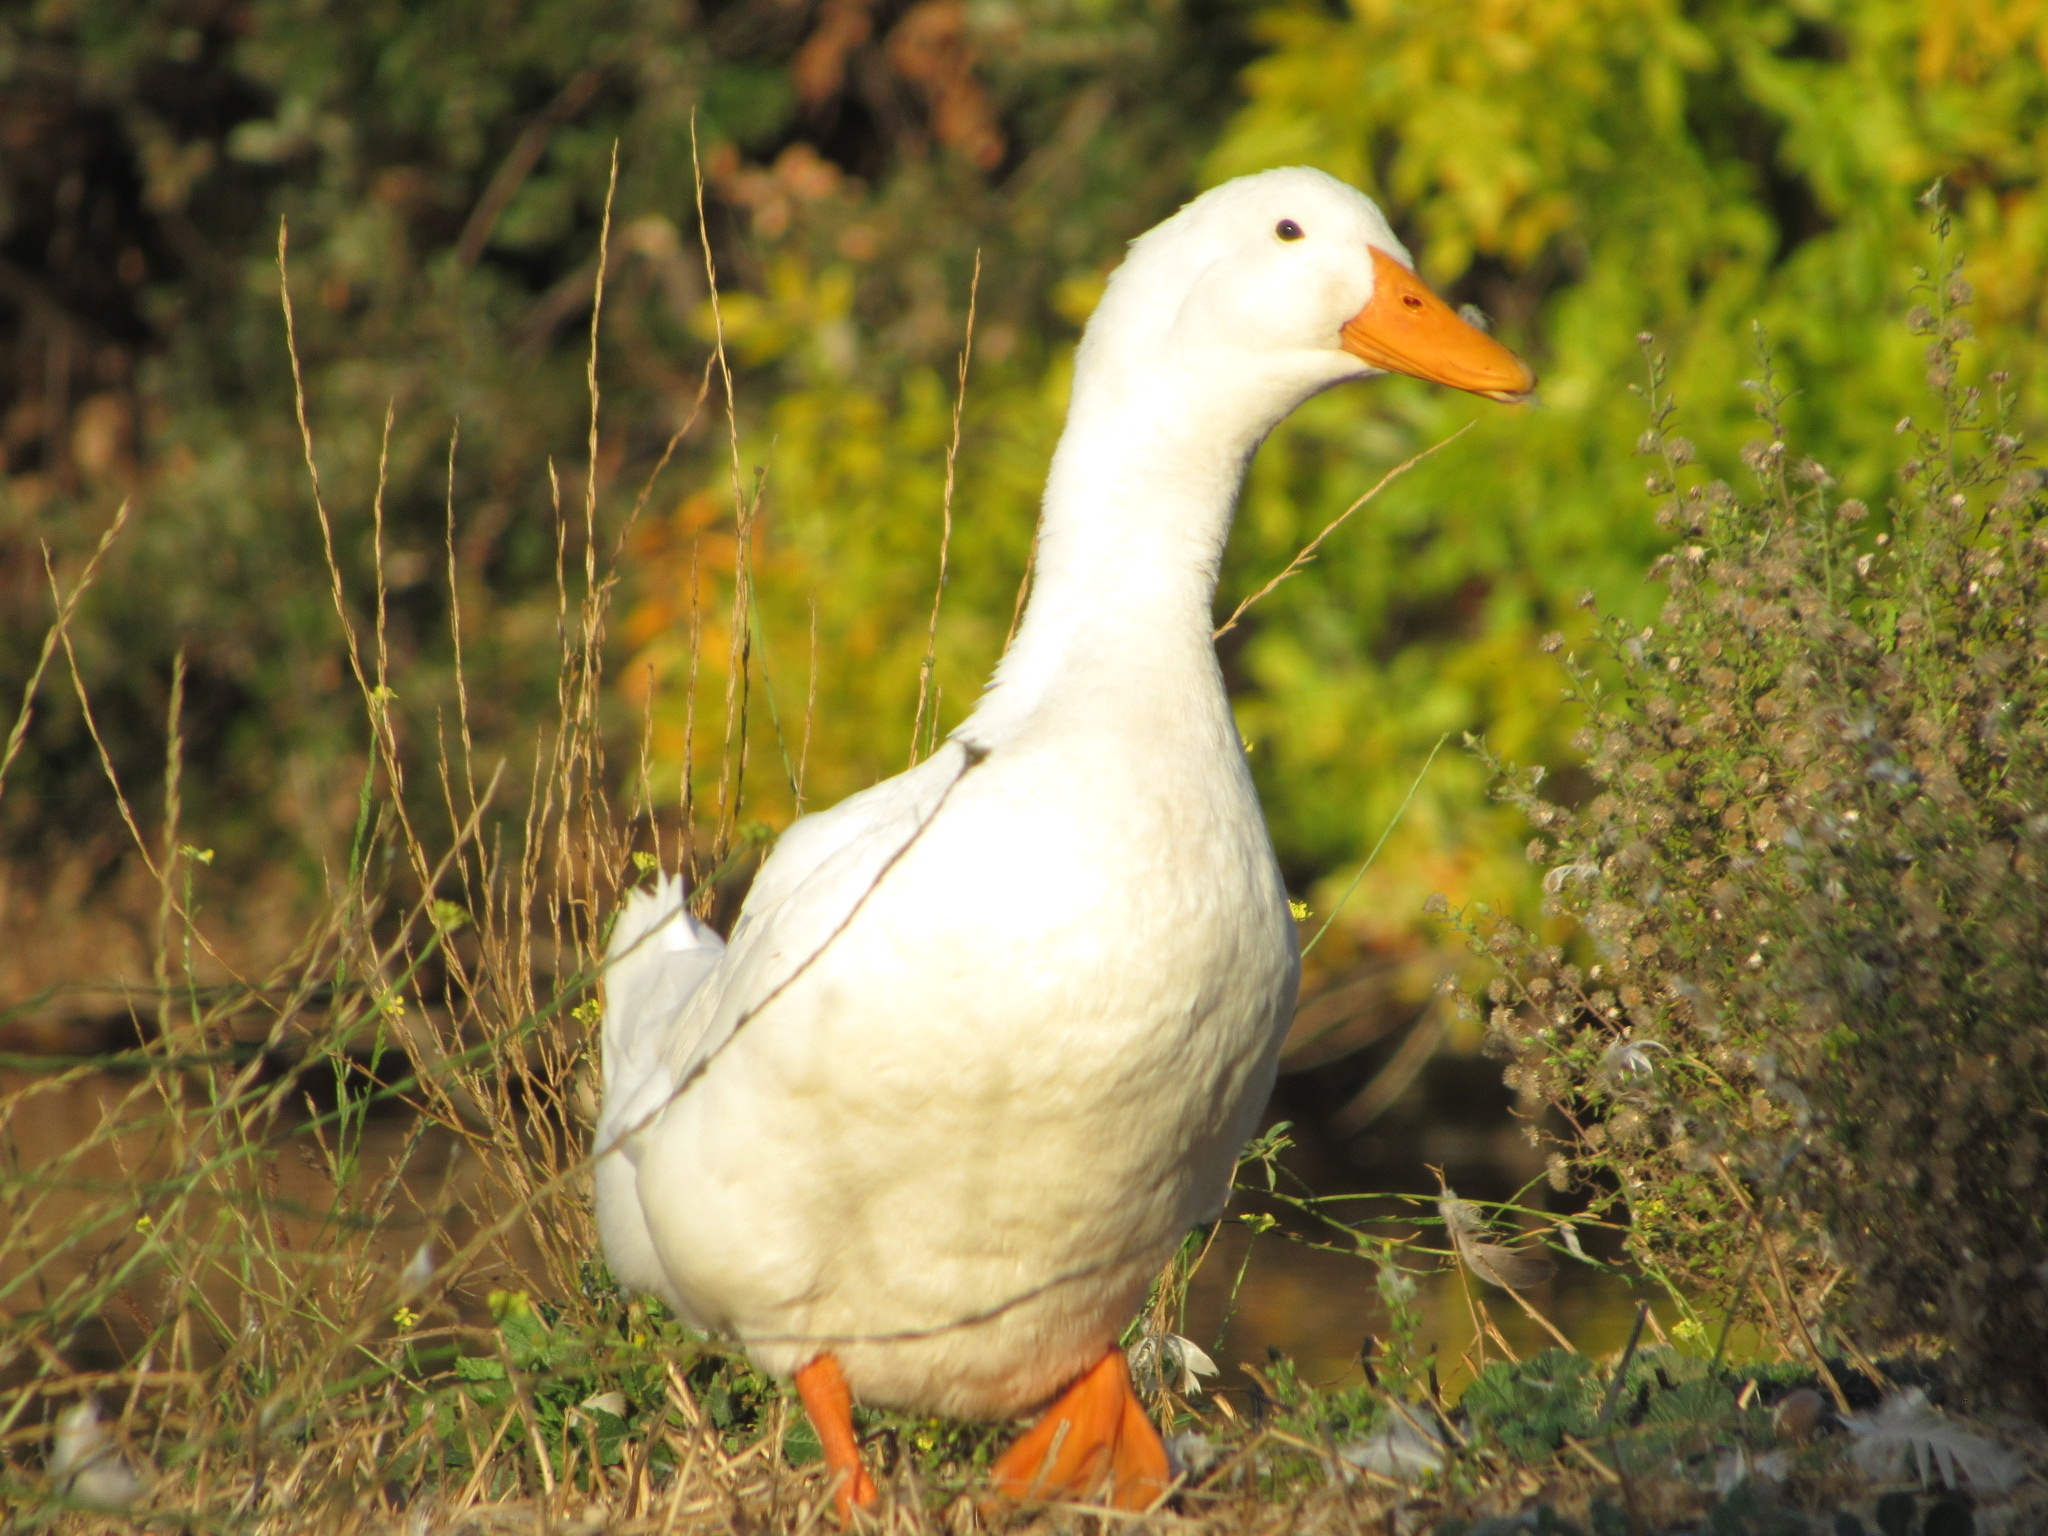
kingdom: Animalia
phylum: Chordata
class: Aves
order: Anseriformes
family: Anatidae
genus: Anas
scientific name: Anas platyrhynchos
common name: Mallard
